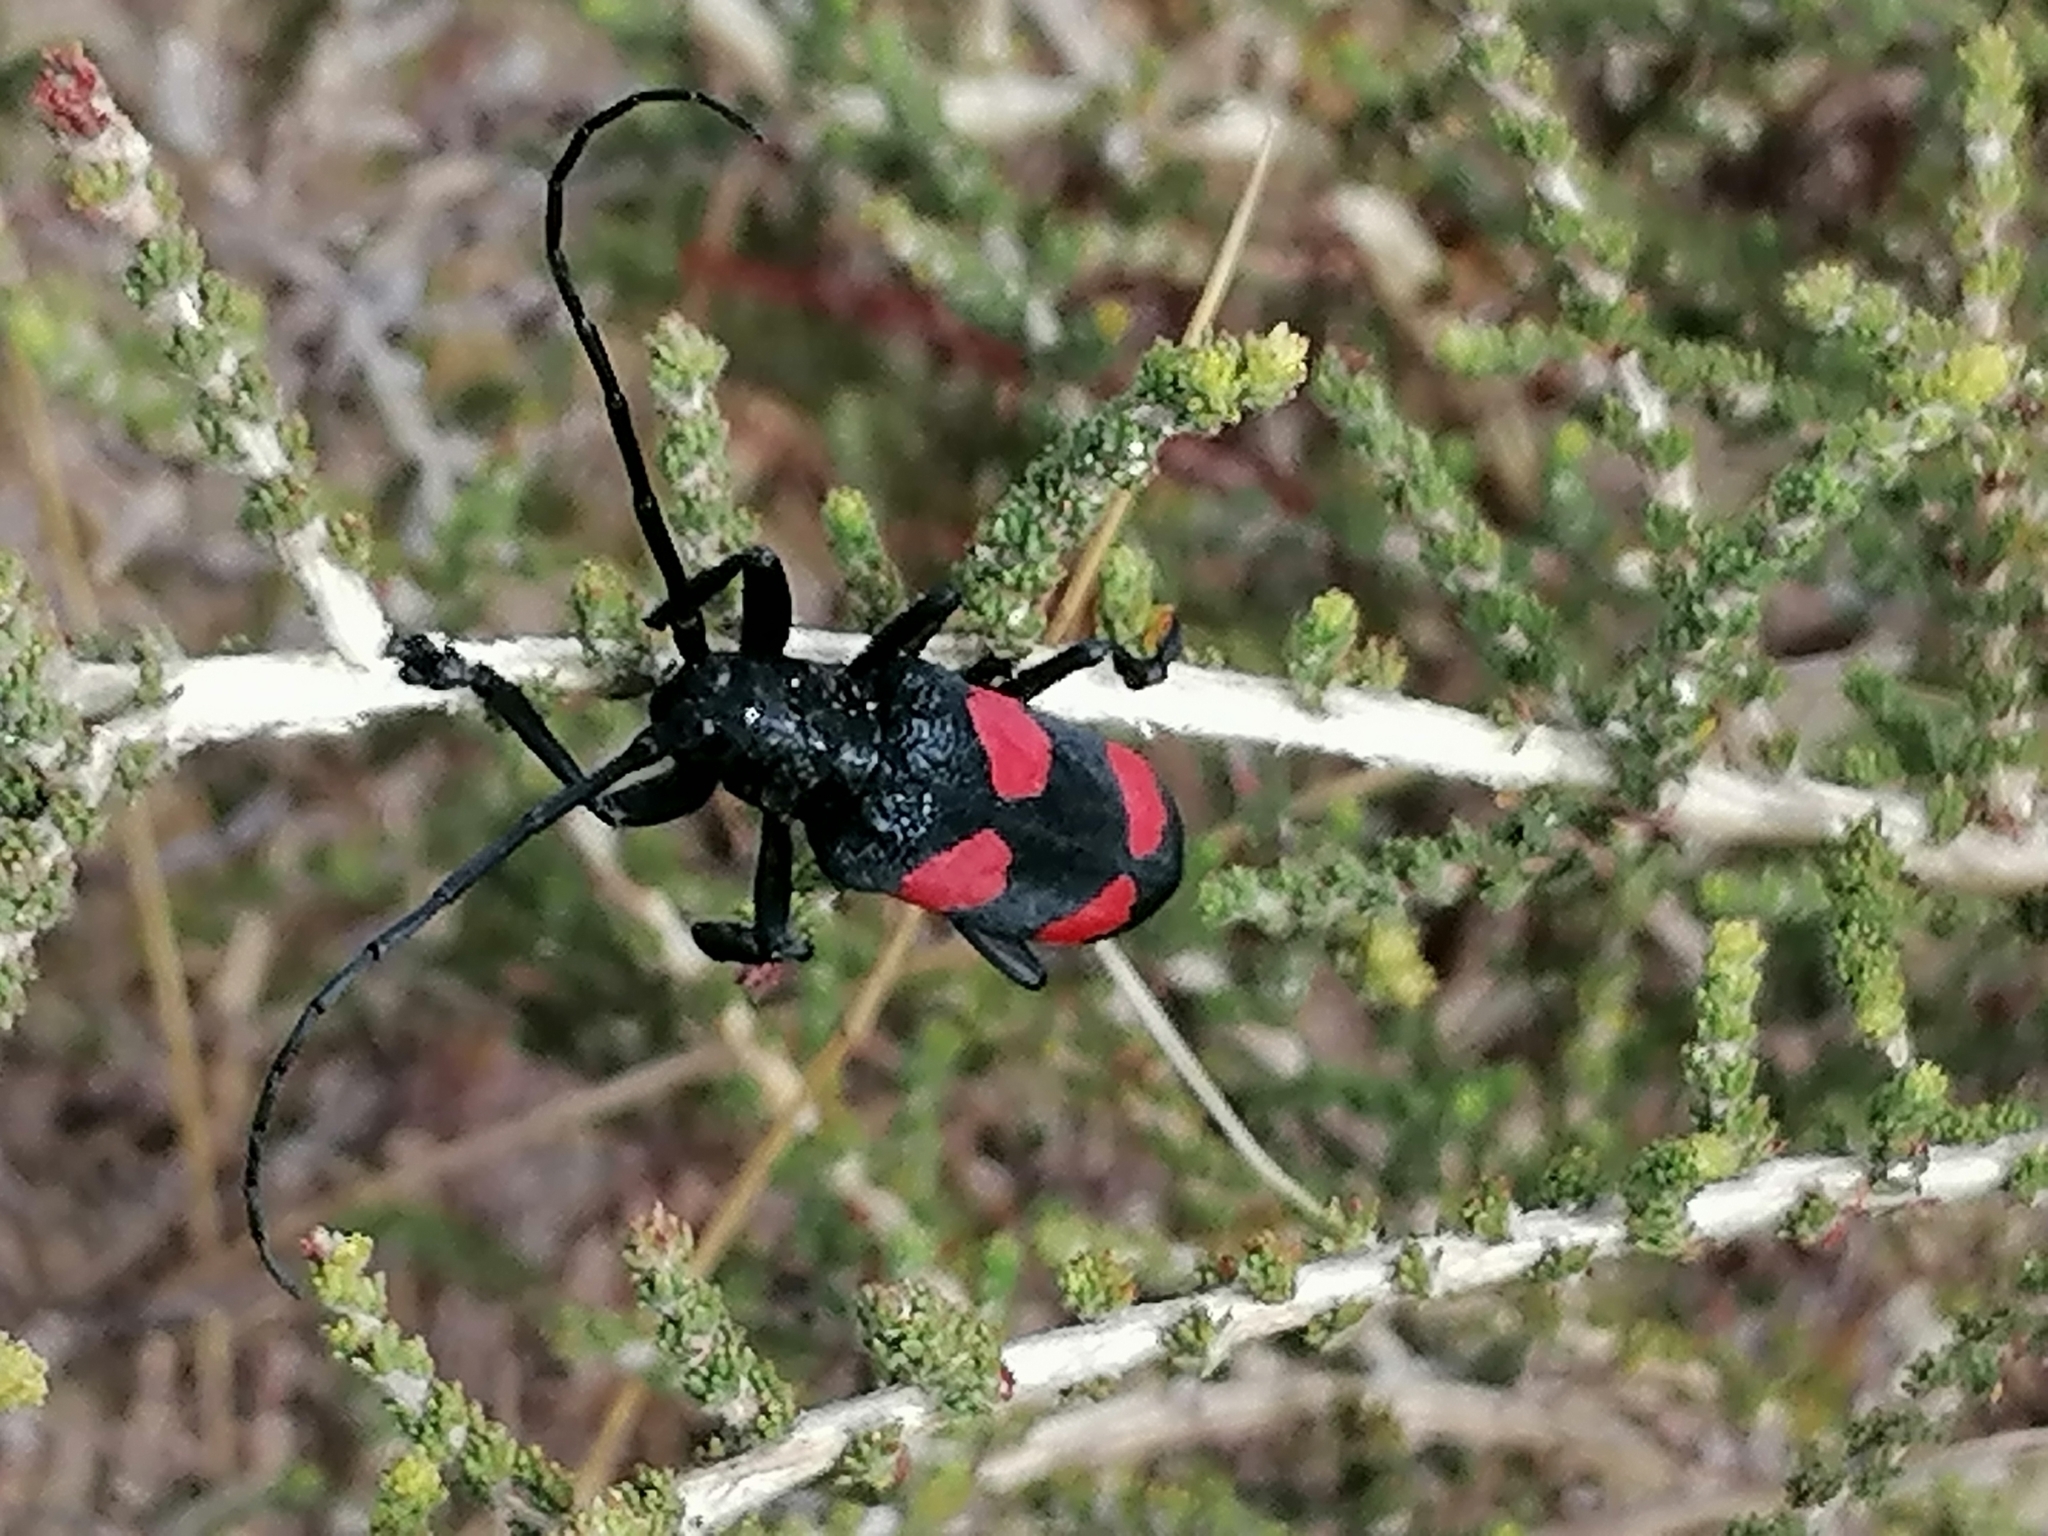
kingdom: Animalia
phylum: Arthropoda
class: Insecta
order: Coleoptera
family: Cerambycidae
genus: Ceroplesis
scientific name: Ceroplesis aethiops
